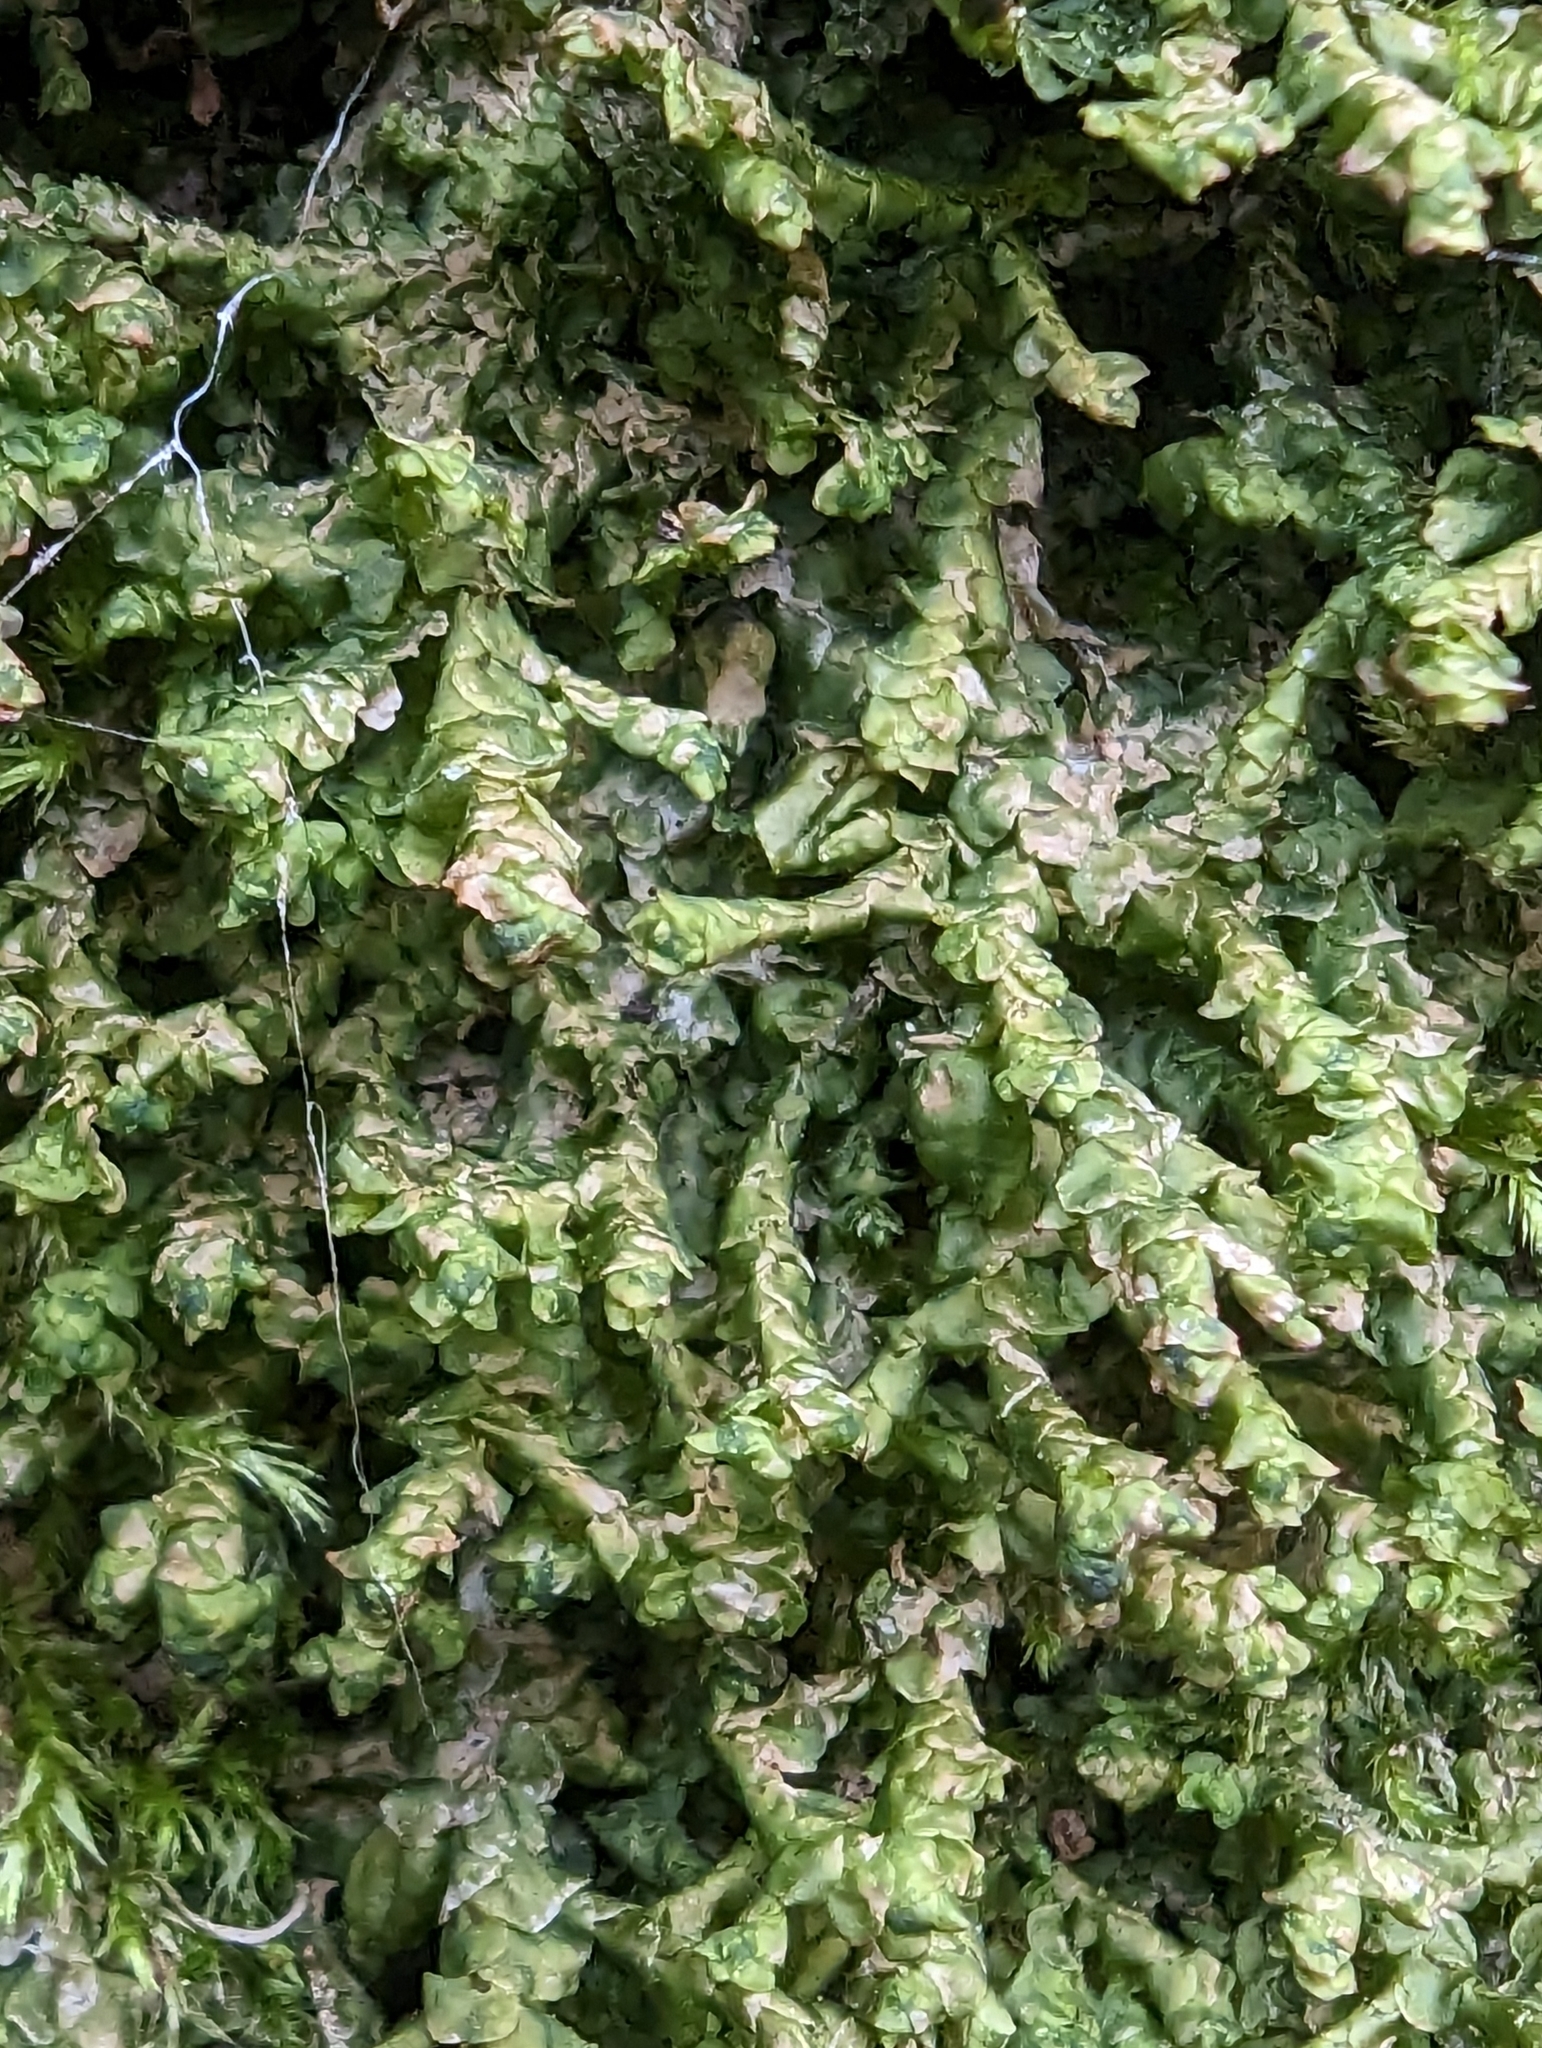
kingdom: Plantae
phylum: Marchantiophyta
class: Jungermanniopsida
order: Porellales
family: Porellaceae
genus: Porella
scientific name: Porella cordaeana
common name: Cliff scalewort
